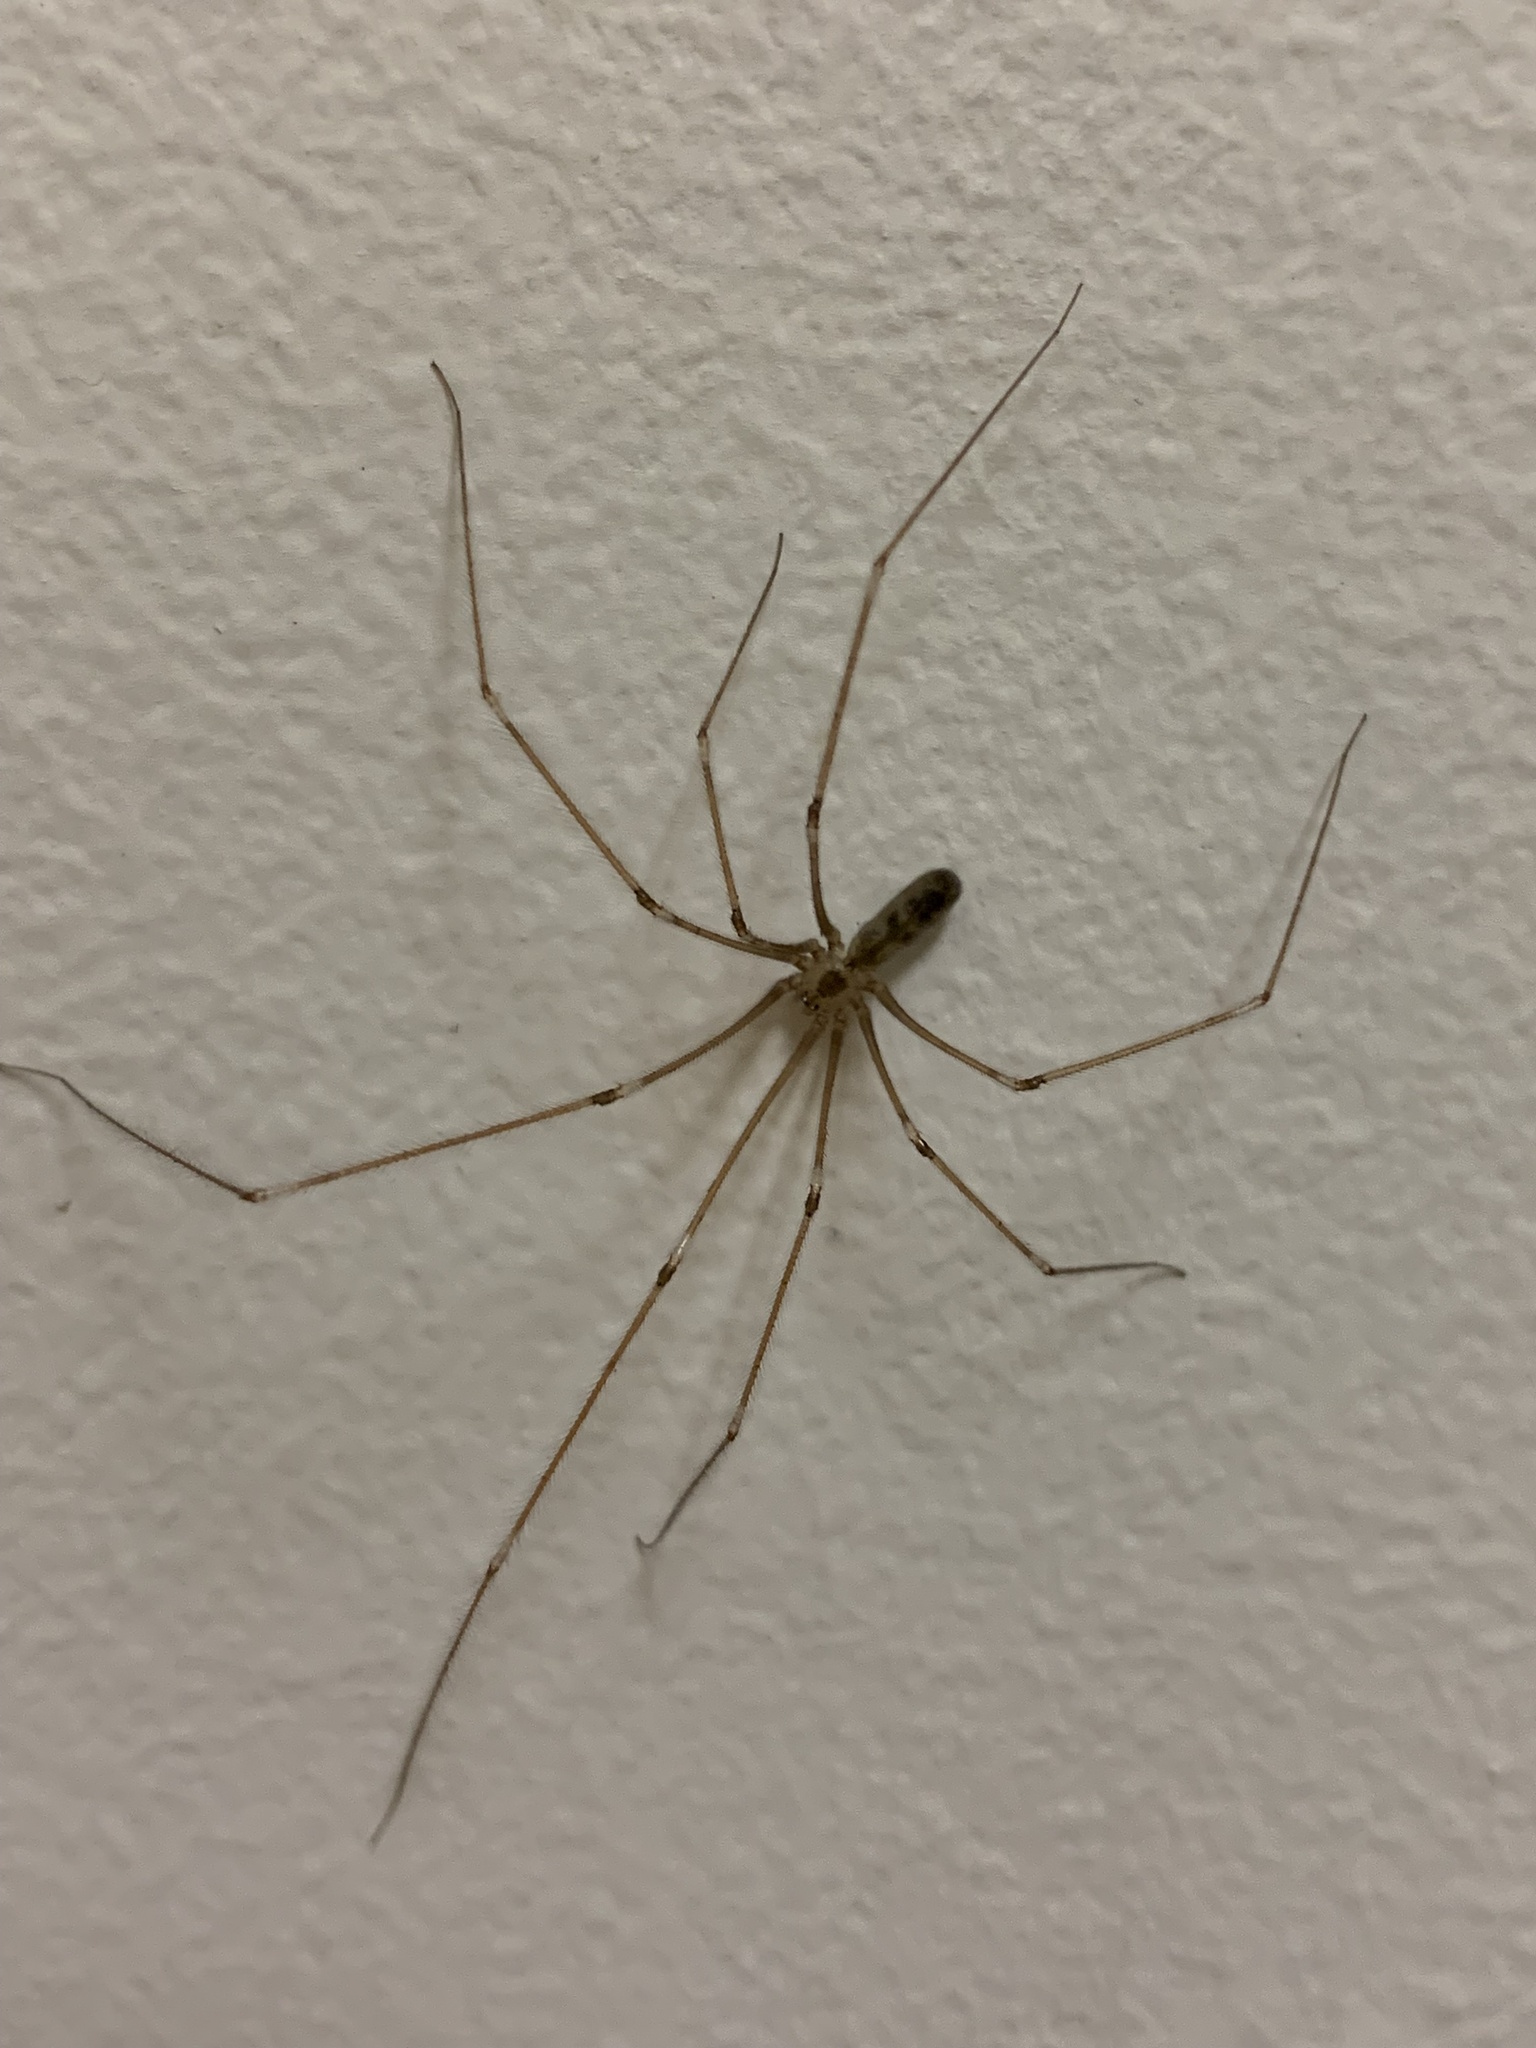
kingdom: Animalia
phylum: Arthropoda
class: Arachnida
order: Araneae
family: Pholcidae
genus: Pholcus
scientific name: Pholcus phalangioides
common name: Longbodied cellar spider
